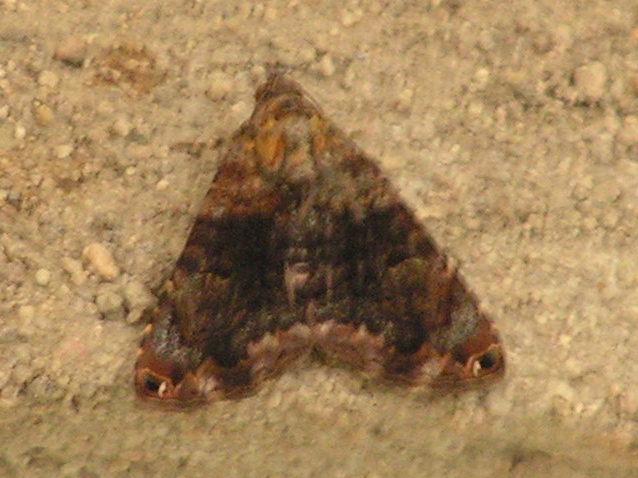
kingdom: Animalia
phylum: Arthropoda
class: Insecta
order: Lepidoptera
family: Erebidae
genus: Acolasis
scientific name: Acolasis bibitrix
